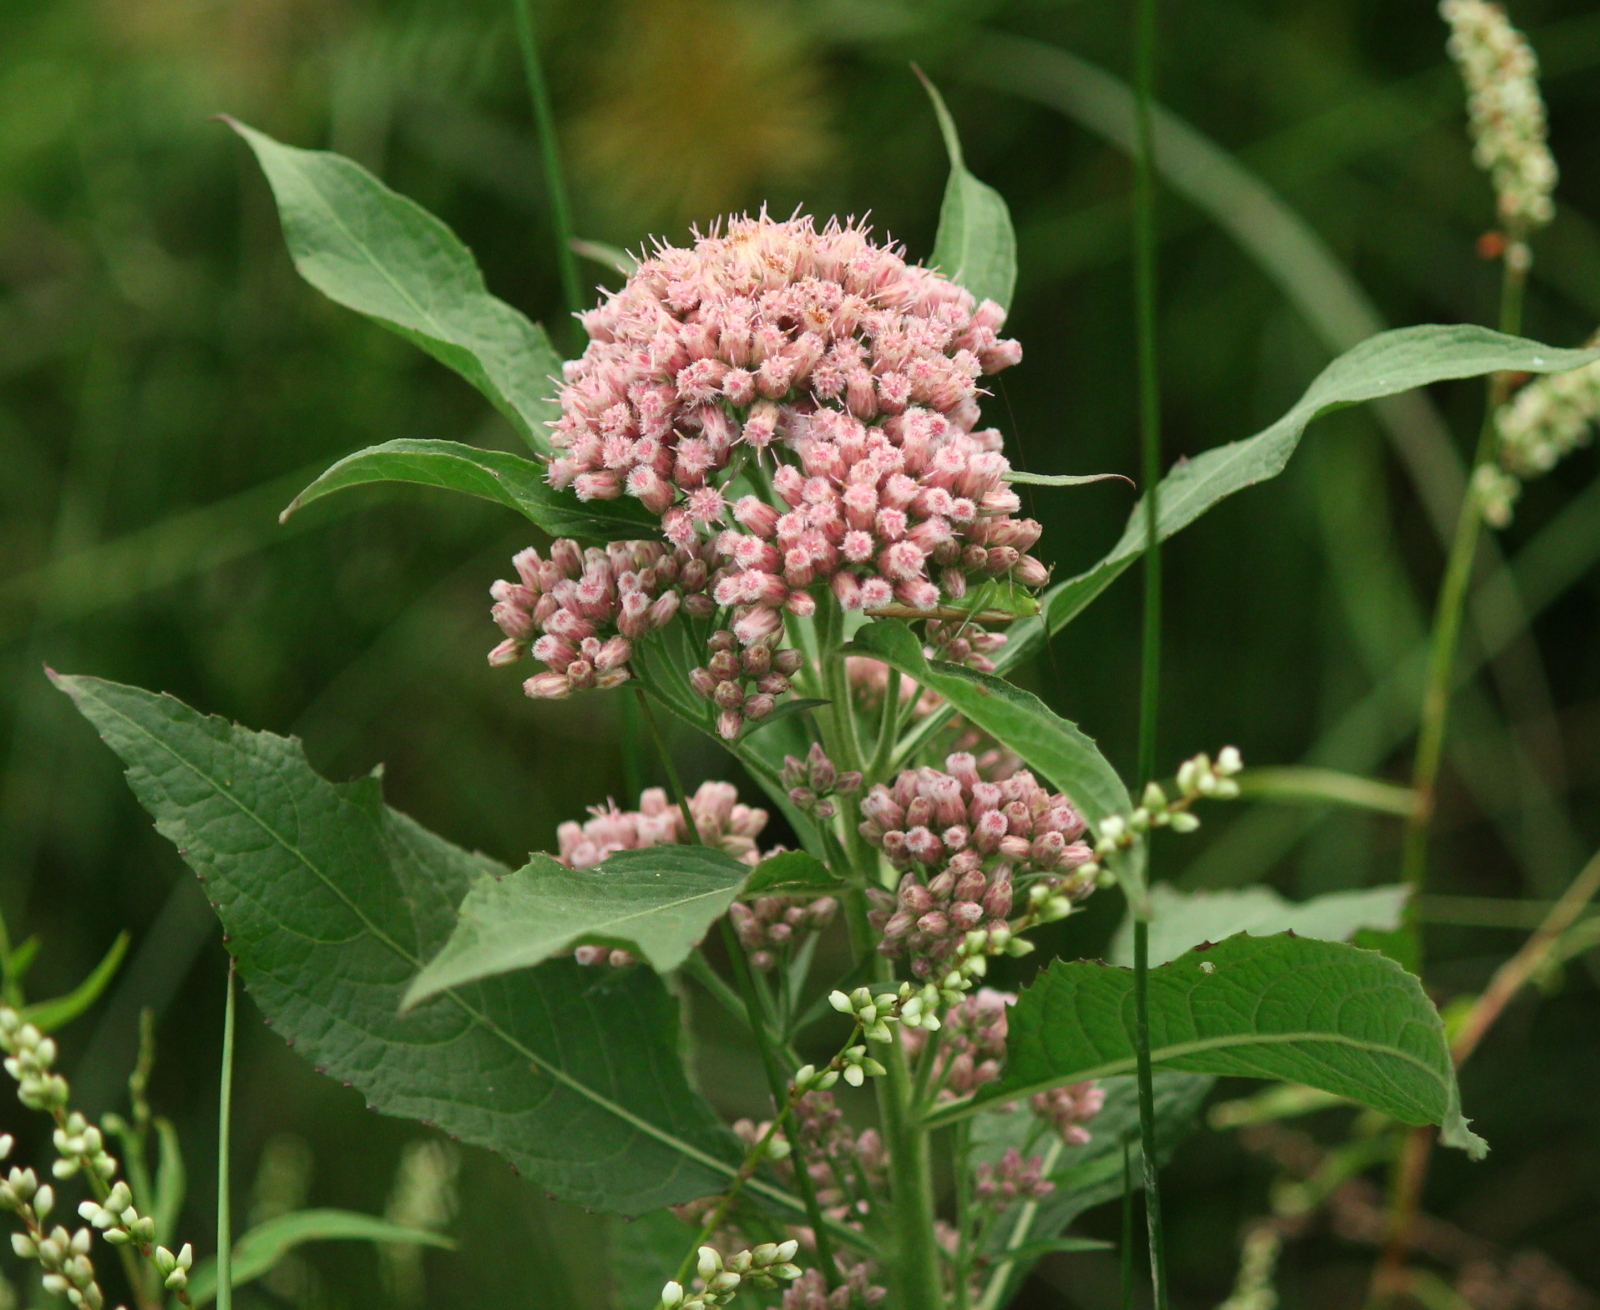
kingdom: Plantae
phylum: Tracheophyta
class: Magnoliopsida
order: Asterales
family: Asteraceae
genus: Pluchea
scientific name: Pluchea camphorata
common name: Camphor pluchea
